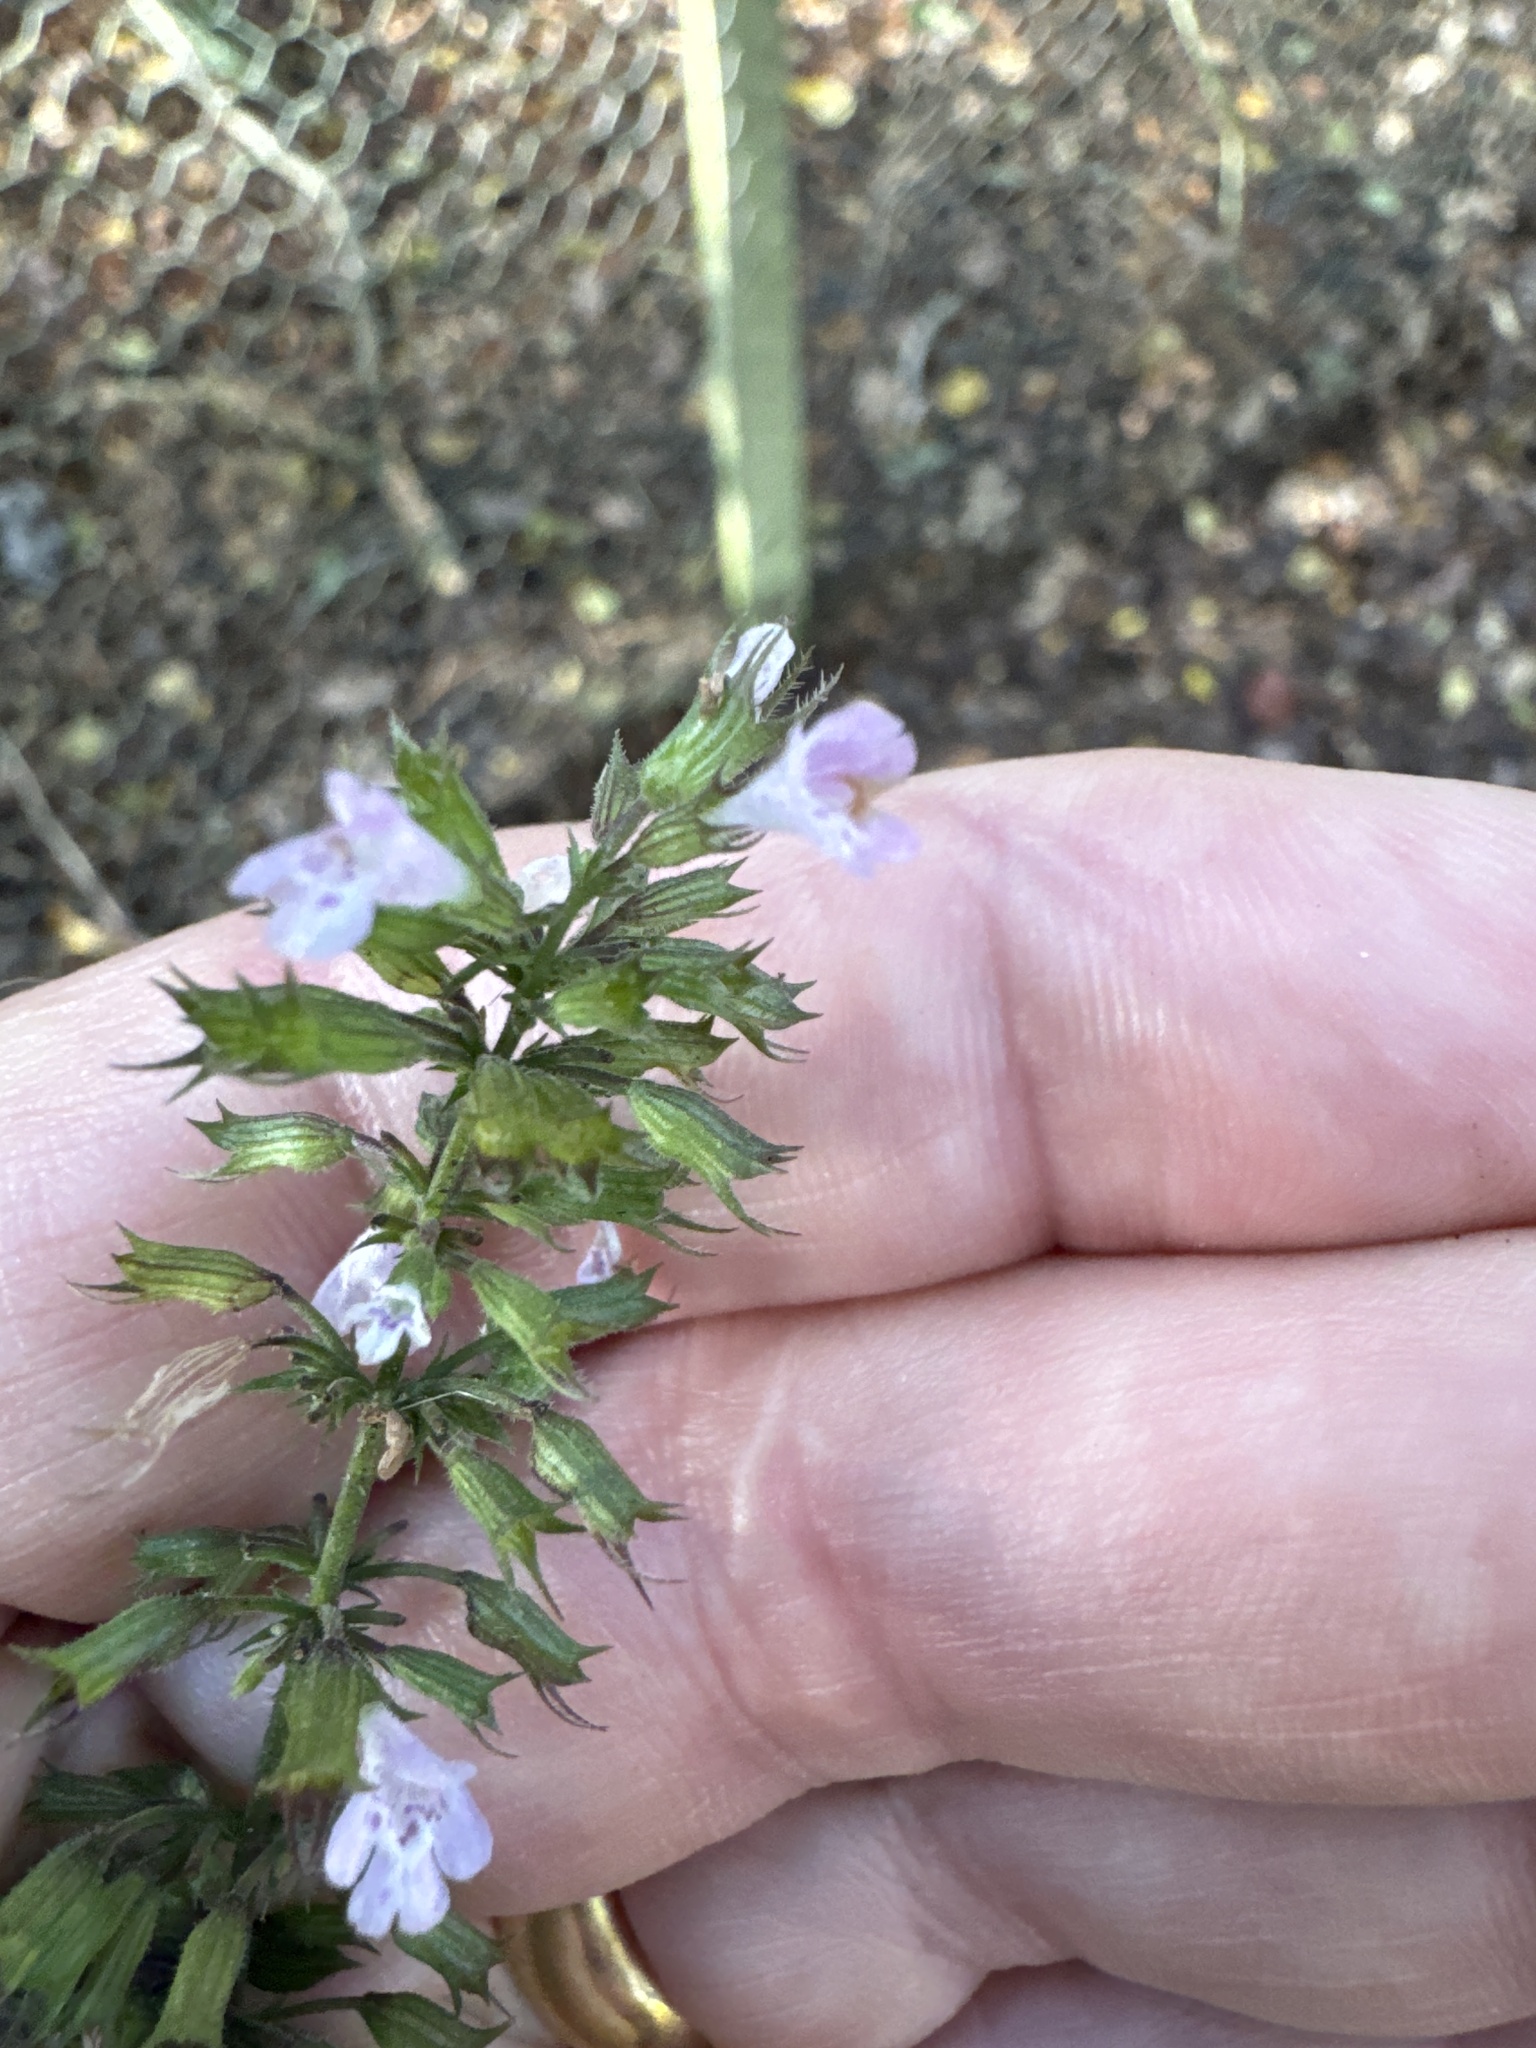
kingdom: Plantae
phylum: Tracheophyta
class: Magnoliopsida
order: Lamiales
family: Lamiaceae
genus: Clinopodium
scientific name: Clinopodium menthifolium
